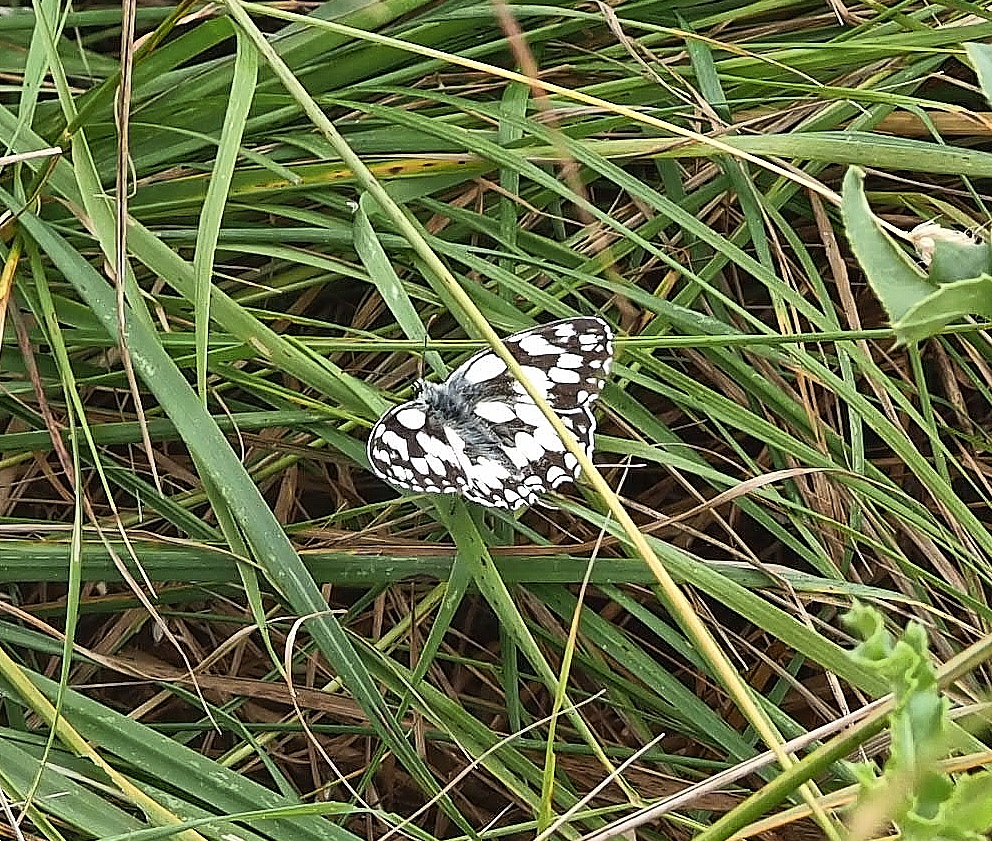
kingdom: Animalia
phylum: Arthropoda
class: Insecta
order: Lepidoptera
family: Nymphalidae
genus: Melanargia
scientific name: Melanargia galathea
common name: Marbled white
